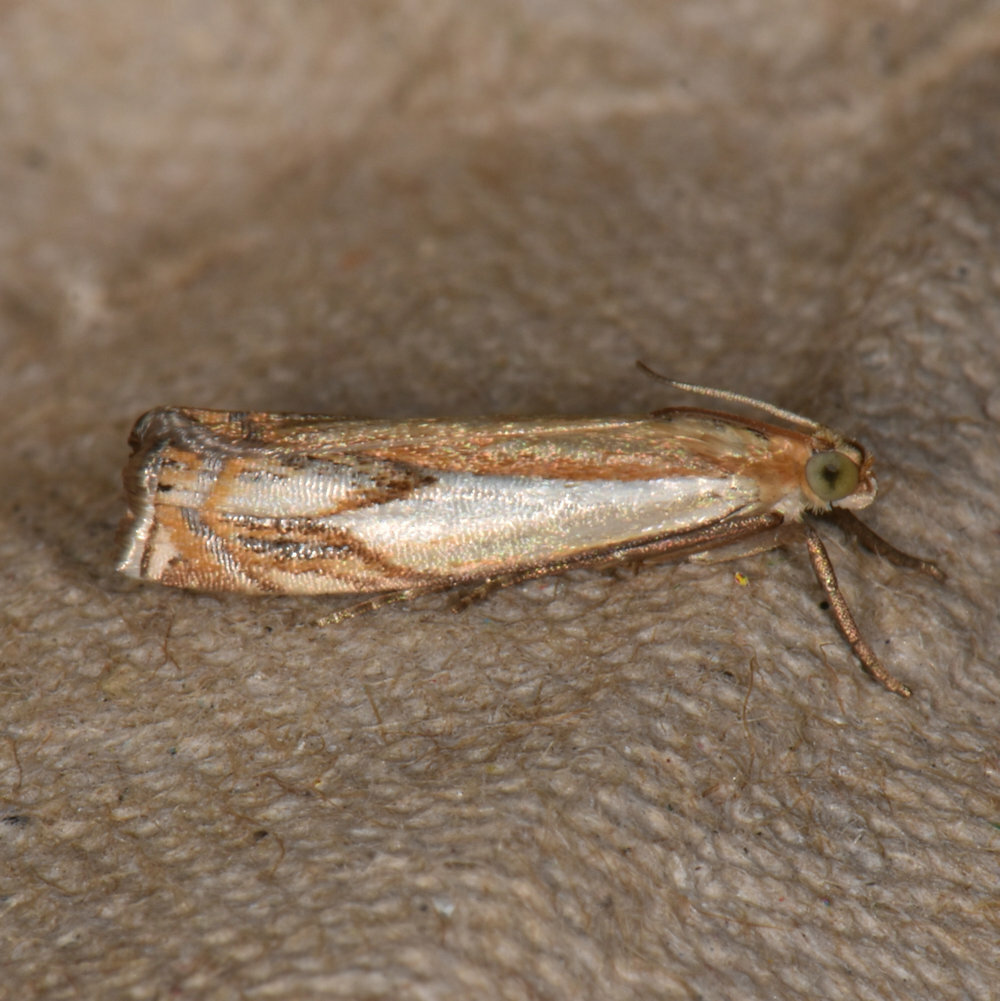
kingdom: Animalia
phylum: Arthropoda
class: Insecta
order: Lepidoptera
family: Crambidae
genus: Crambus
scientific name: Crambus agitatellus
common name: Double-banded grass-veneer
